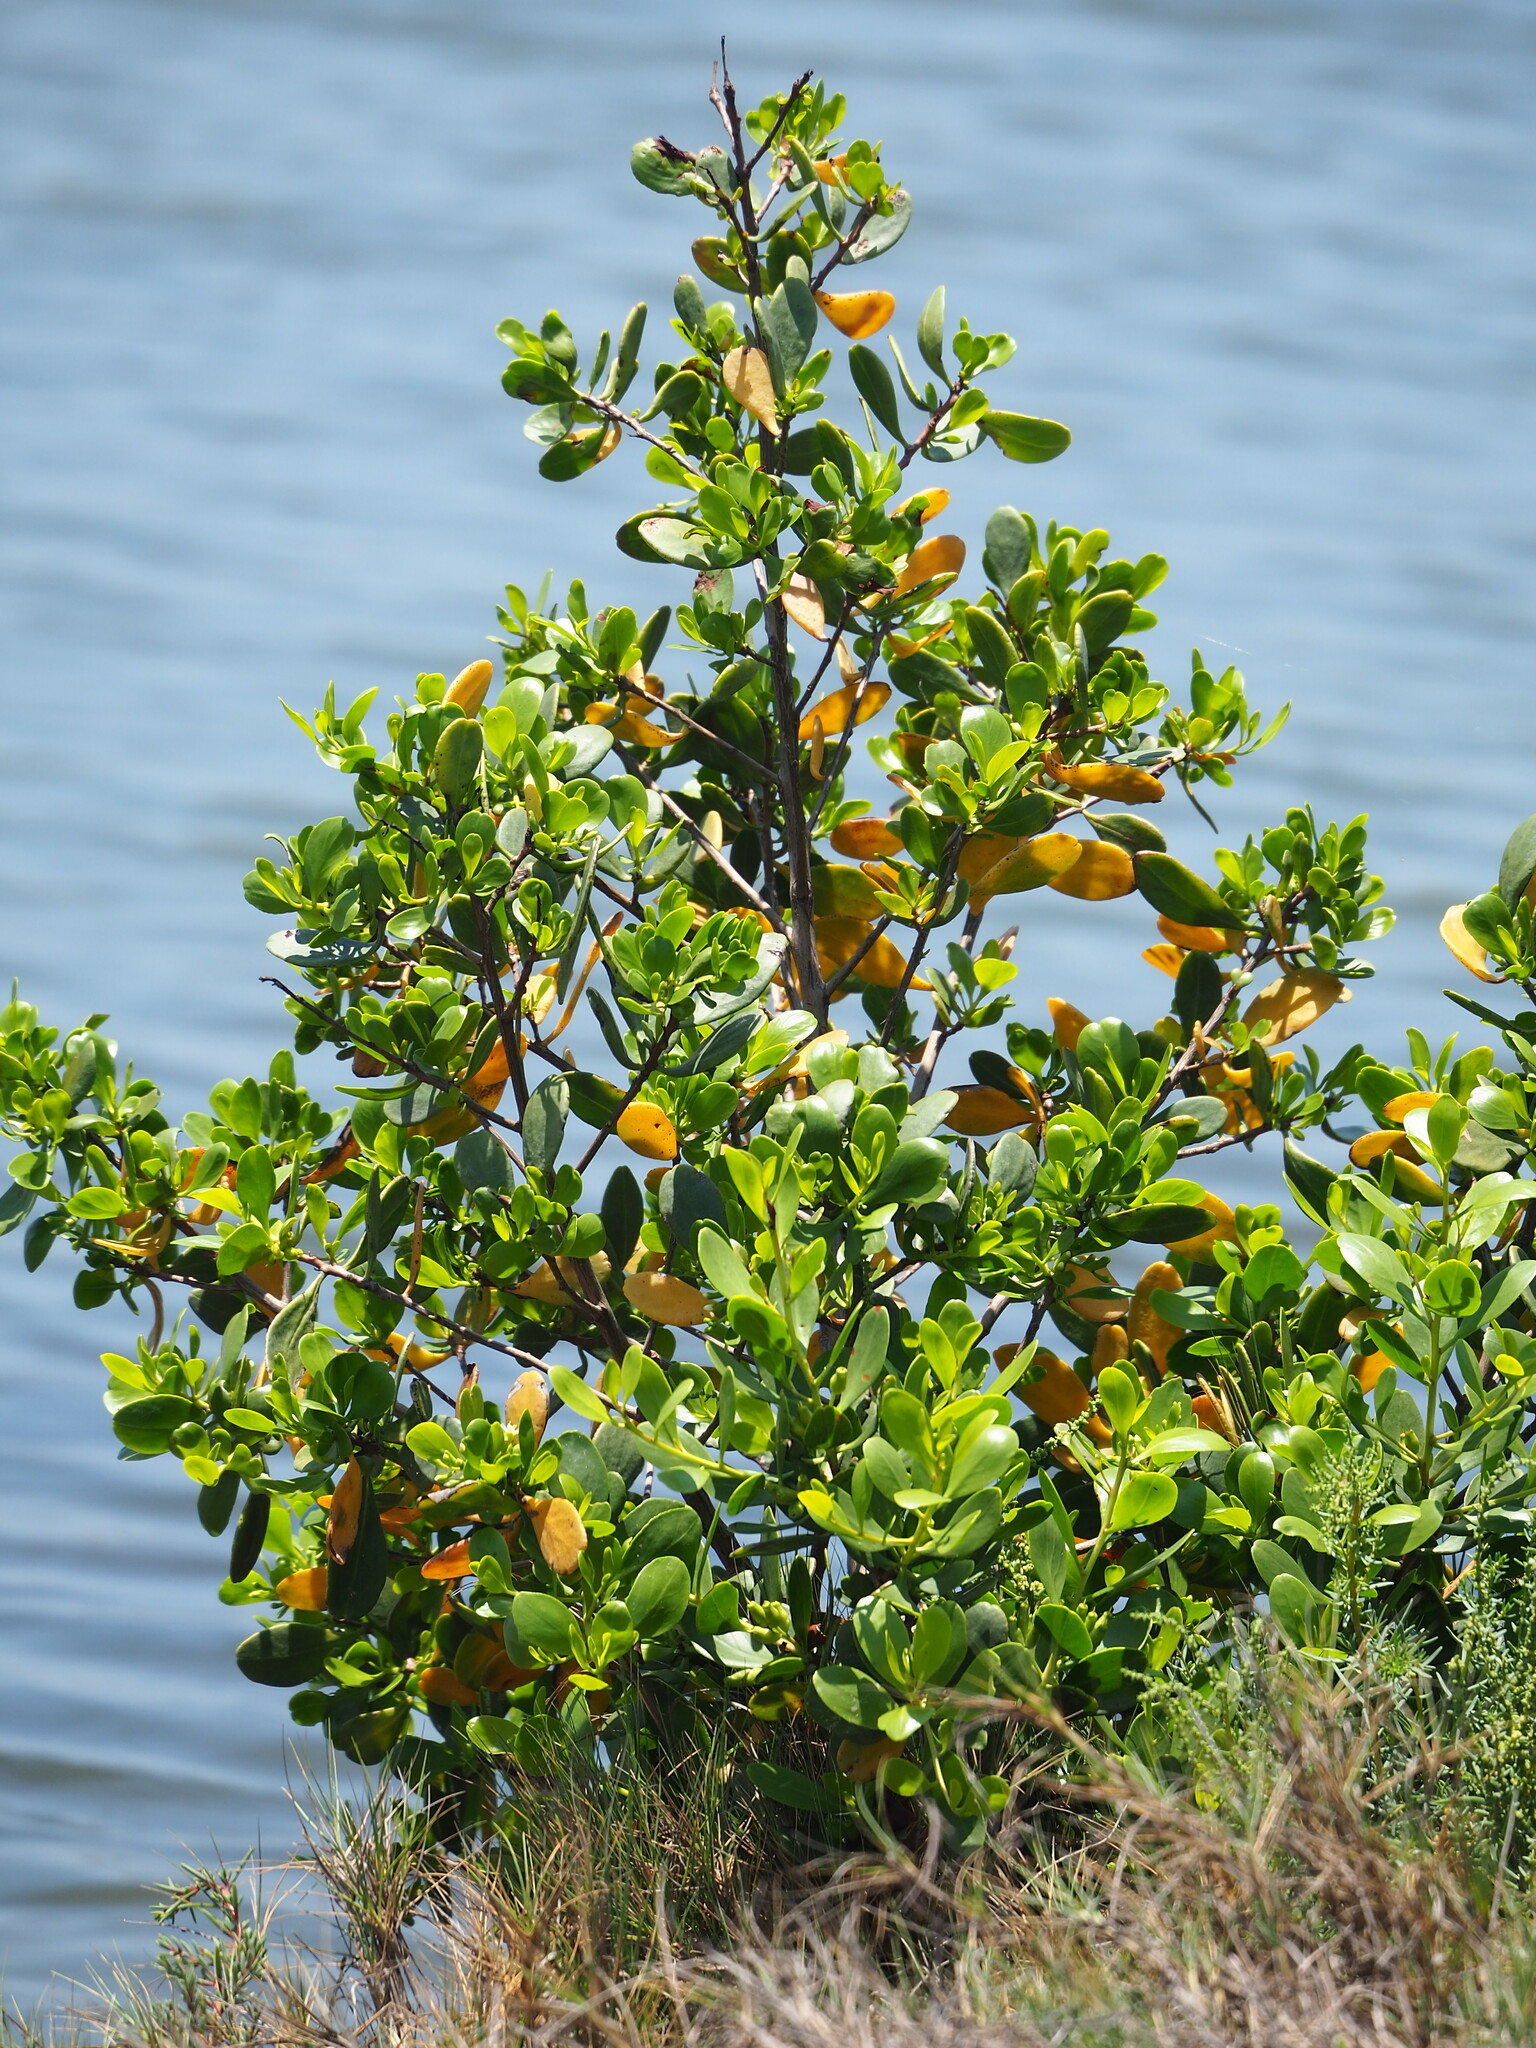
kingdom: Plantae
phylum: Tracheophyta
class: Magnoliopsida
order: Myrtales
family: Combretaceae
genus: Lumnitzera
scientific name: Lumnitzera racemosa
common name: White-flowered black mangrove
